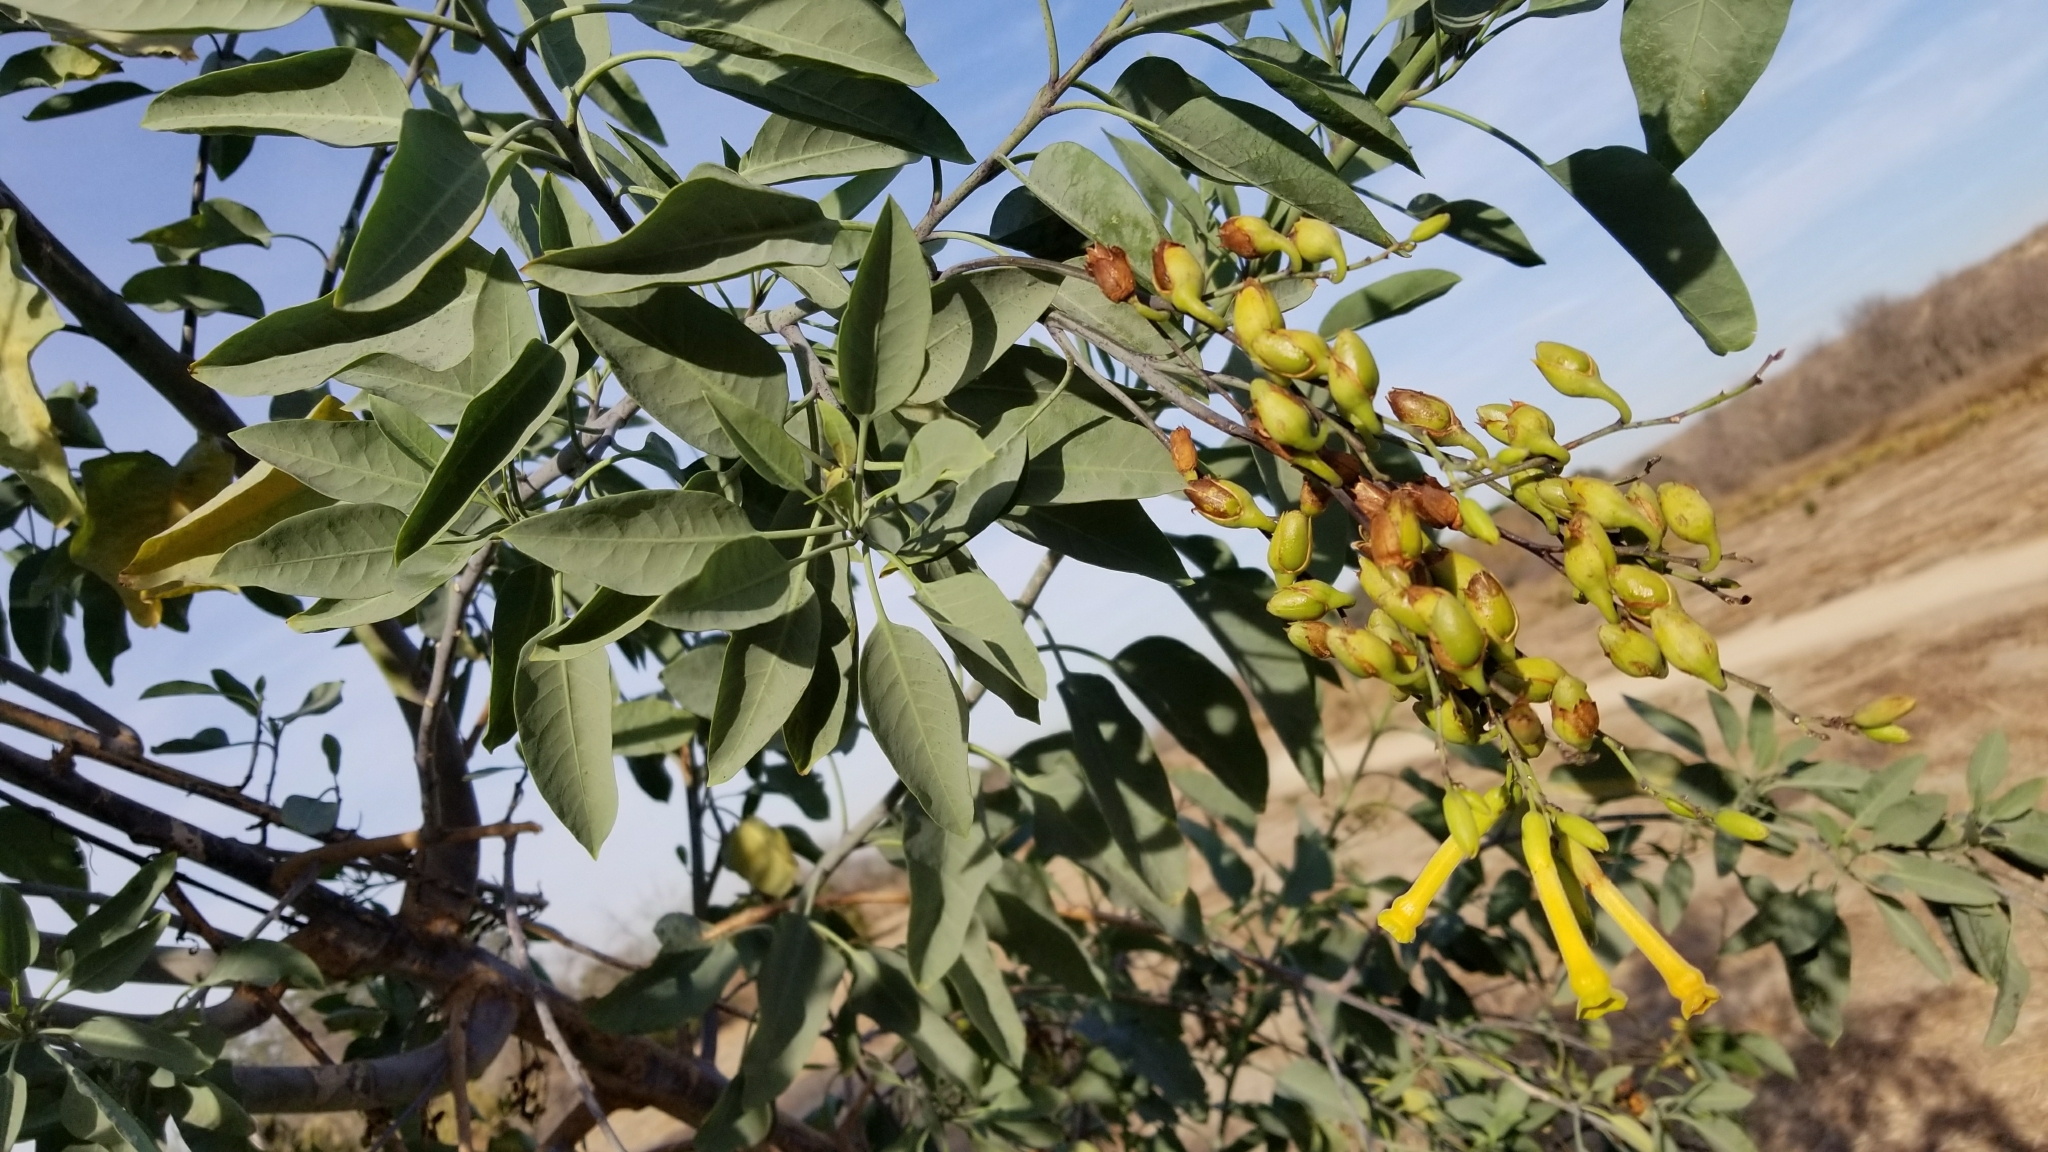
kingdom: Plantae
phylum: Tracheophyta
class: Magnoliopsida
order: Solanales
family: Solanaceae
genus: Nicotiana
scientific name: Nicotiana glauca
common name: Tree tobacco
